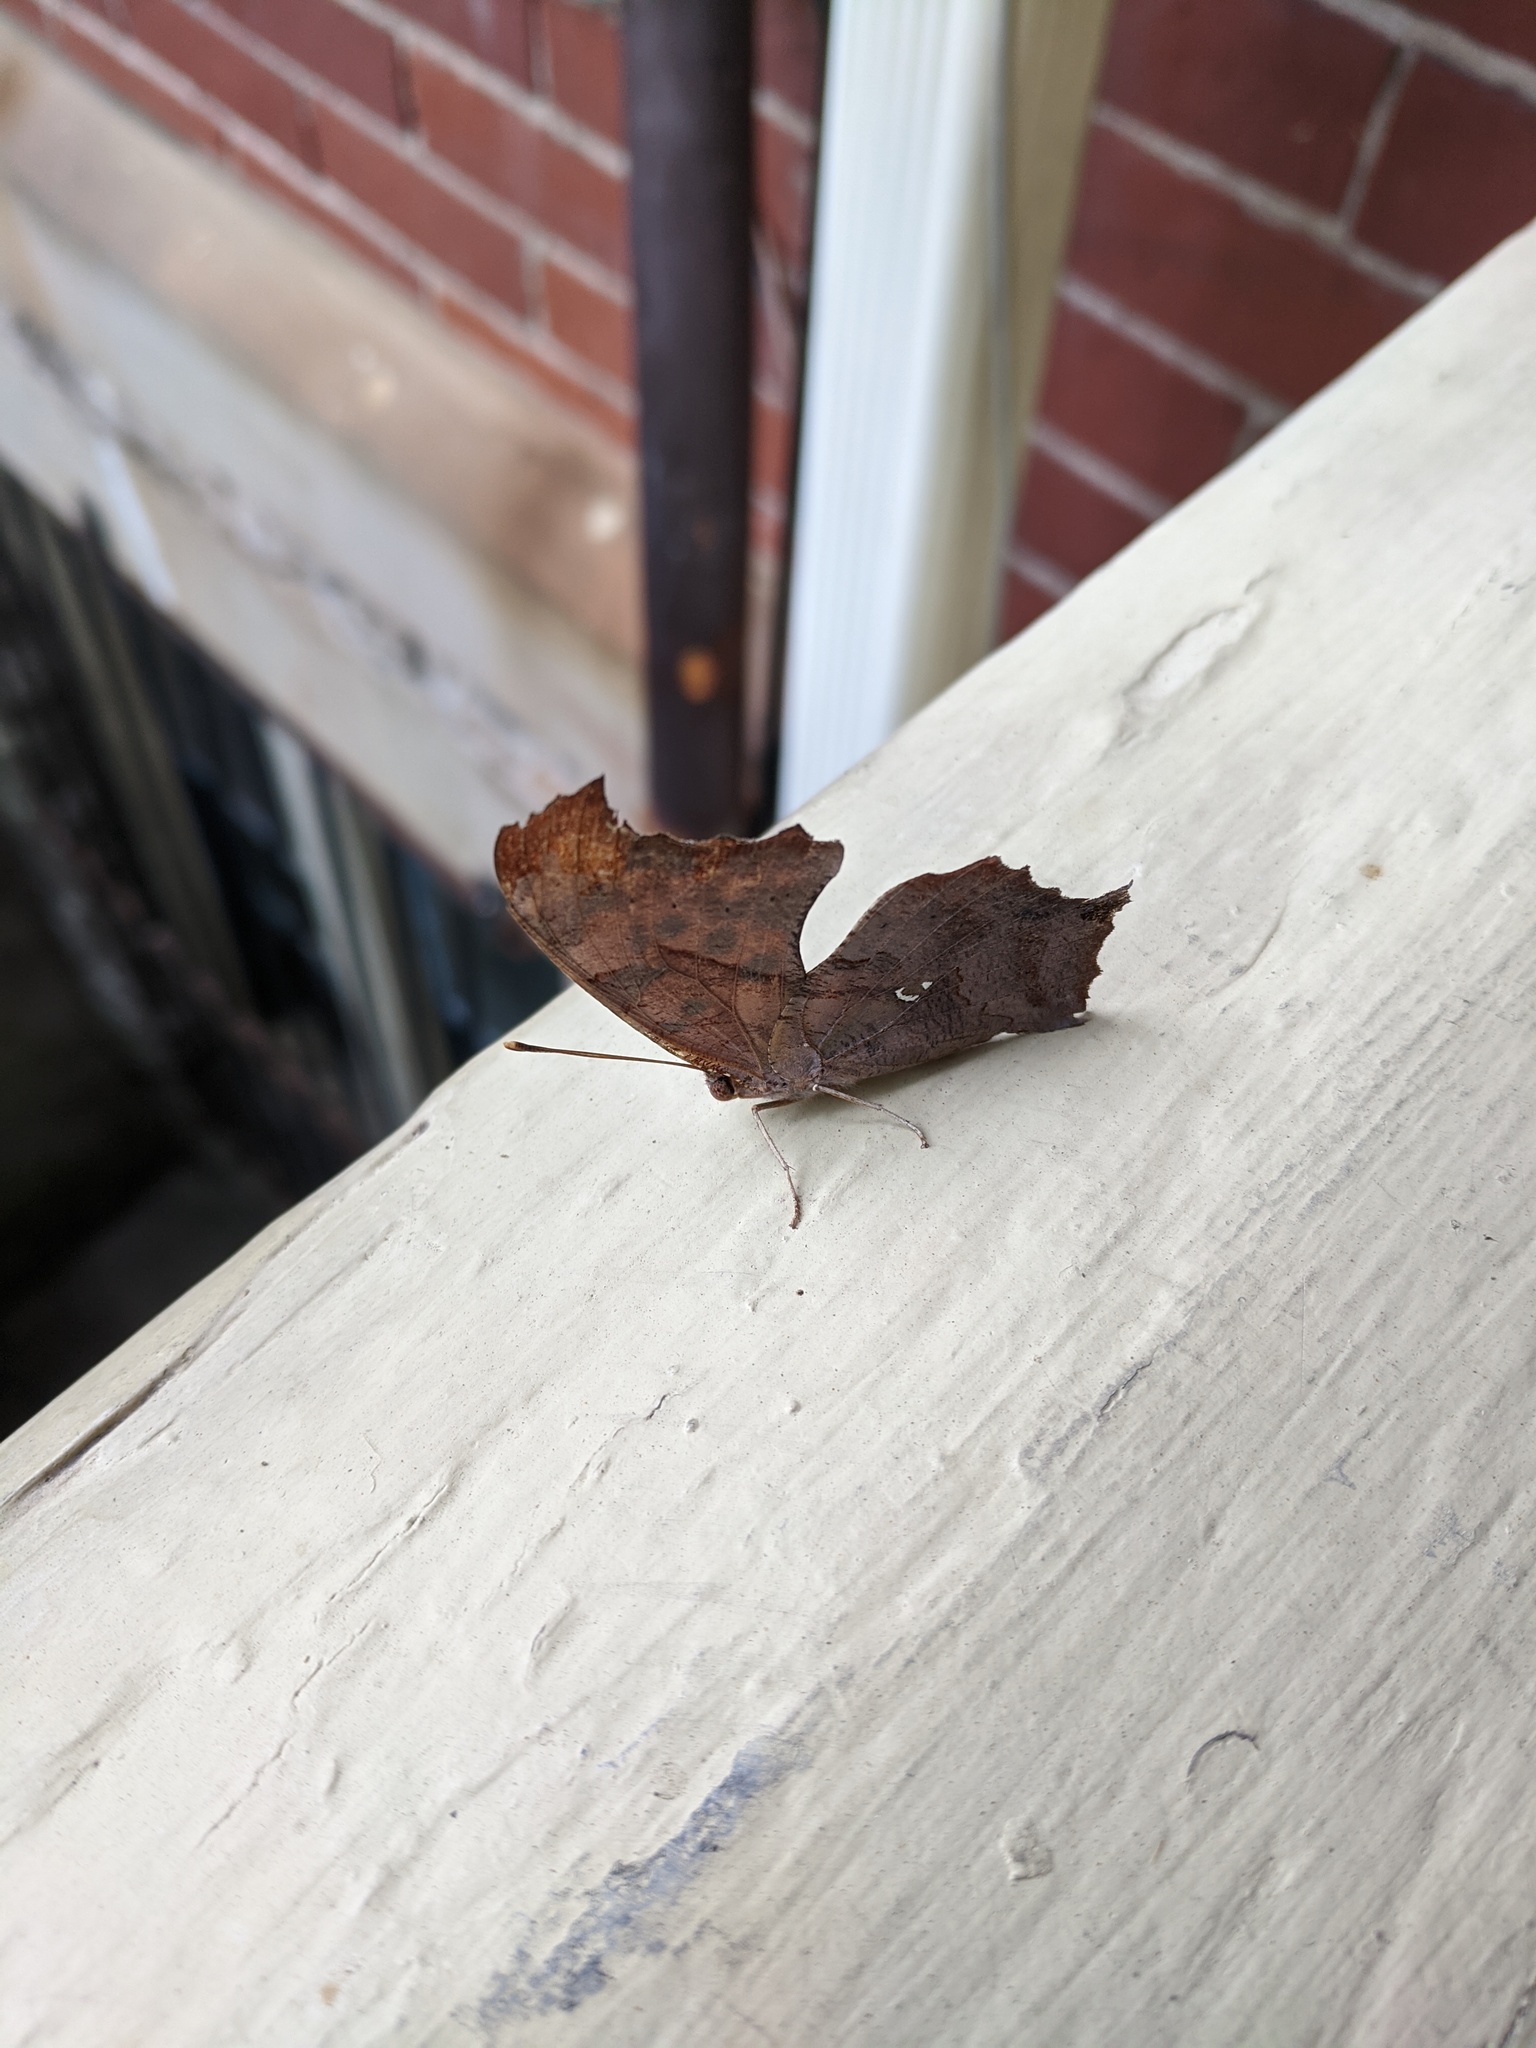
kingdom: Animalia
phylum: Arthropoda
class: Insecta
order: Lepidoptera
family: Nymphalidae
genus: Polygonia
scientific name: Polygonia interrogationis
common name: Question mark
